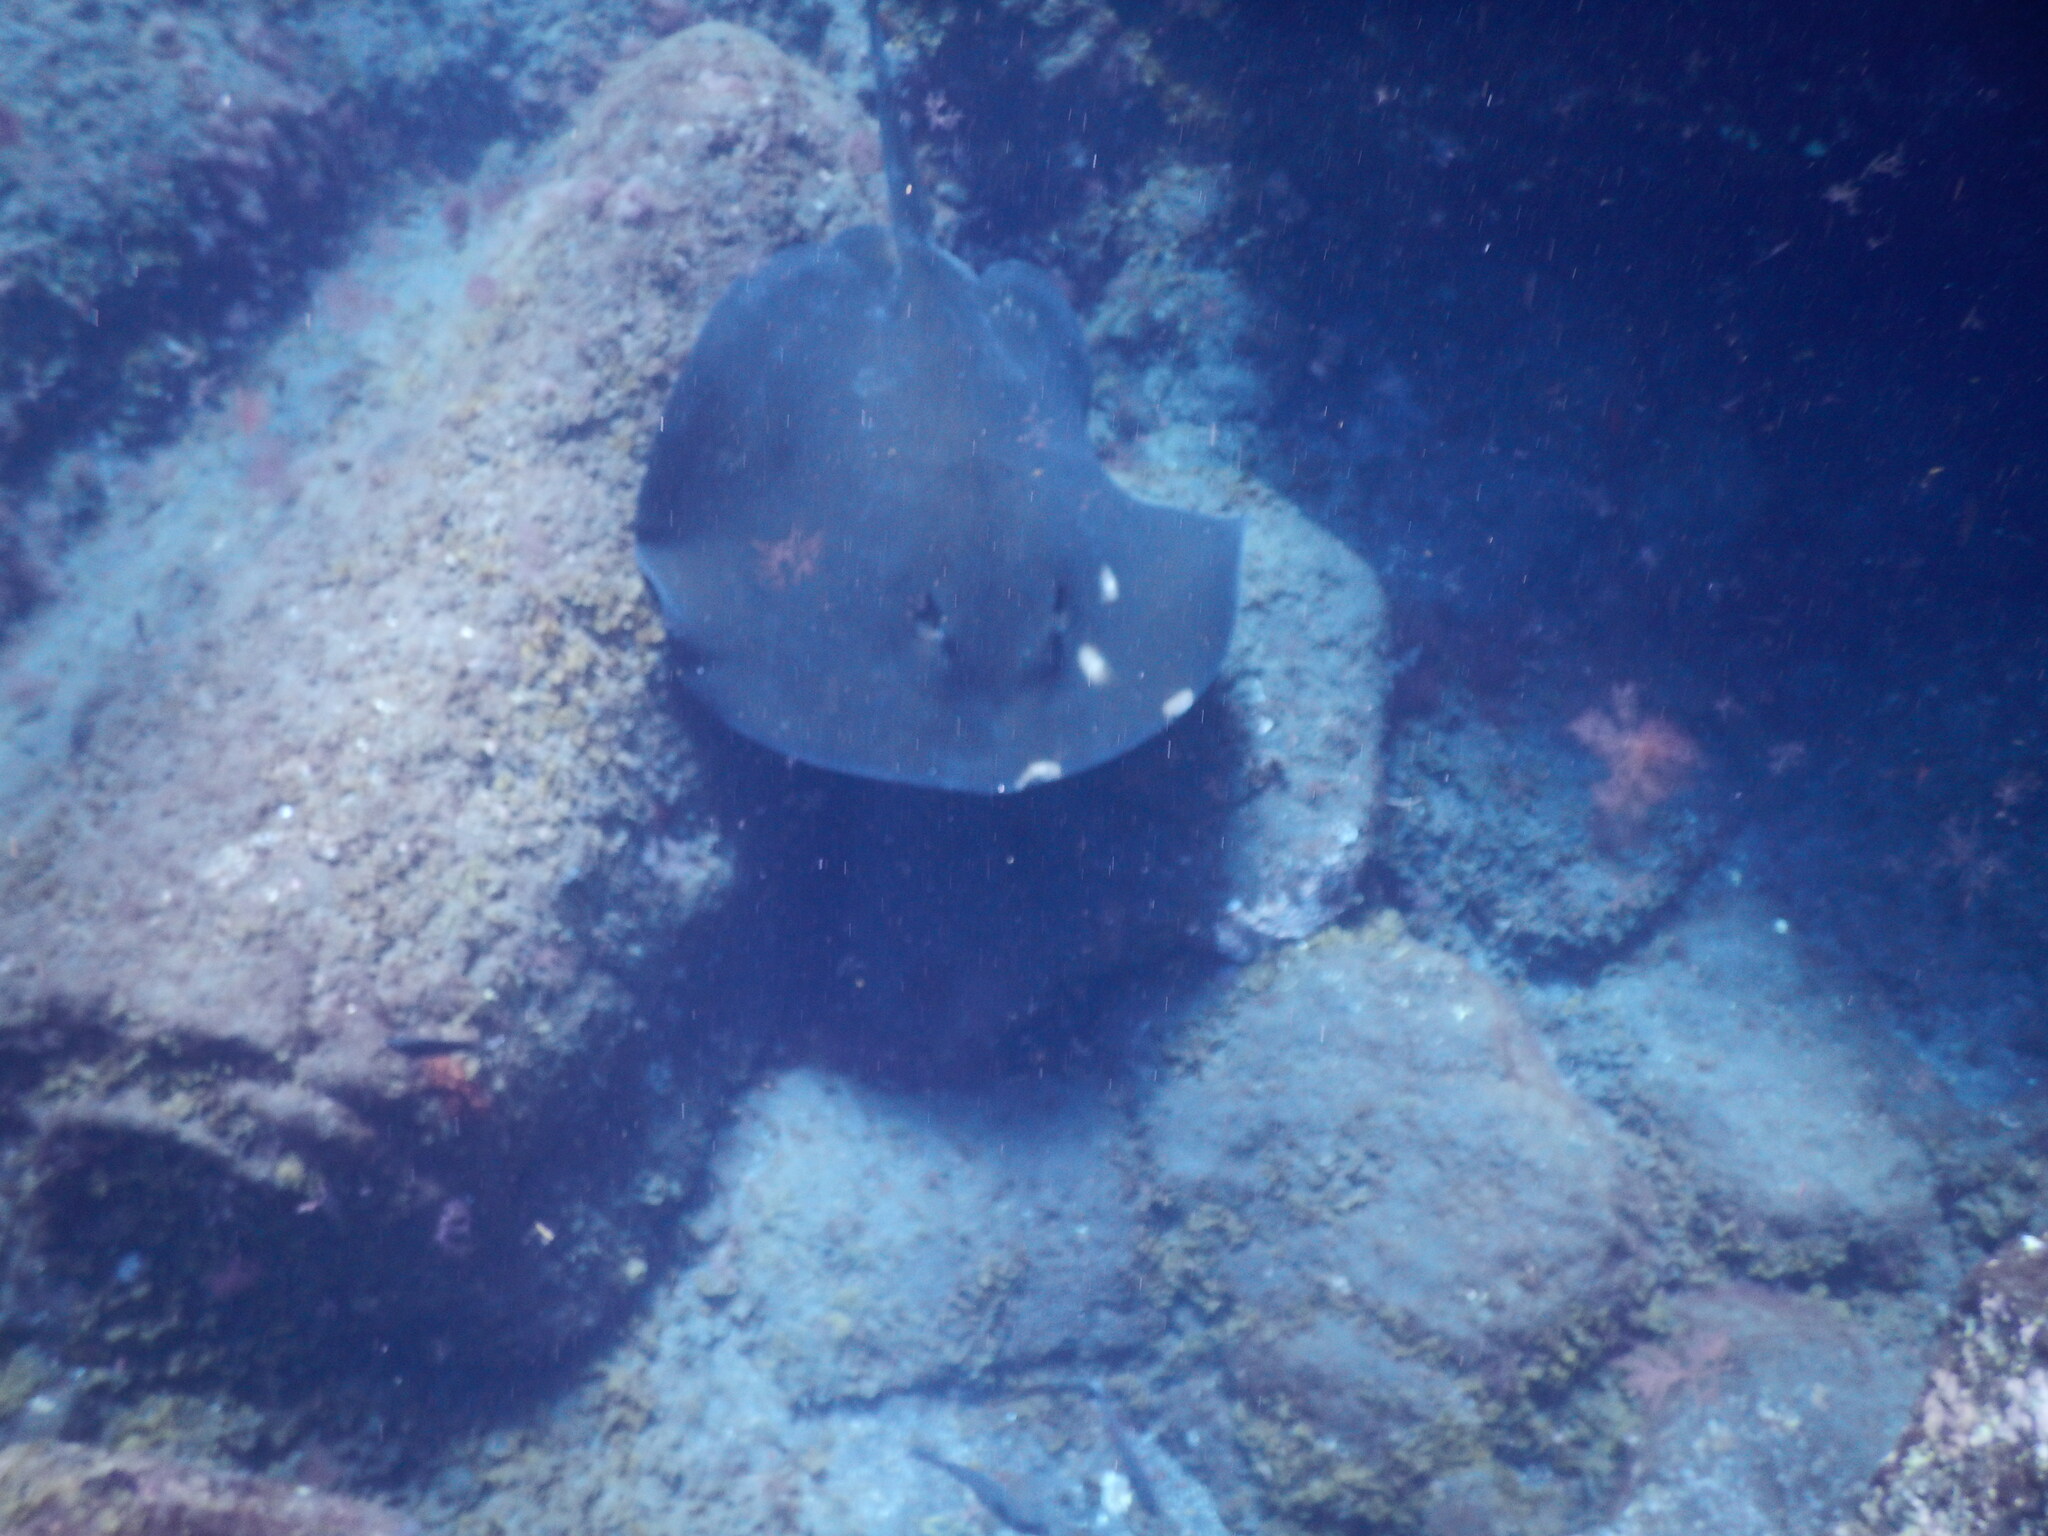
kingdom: Animalia
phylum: Chordata
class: Elasmobranchii
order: Myliobatiformes
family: Dasyatidae
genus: Taeniura
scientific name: Taeniura grabata
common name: Round stingray
